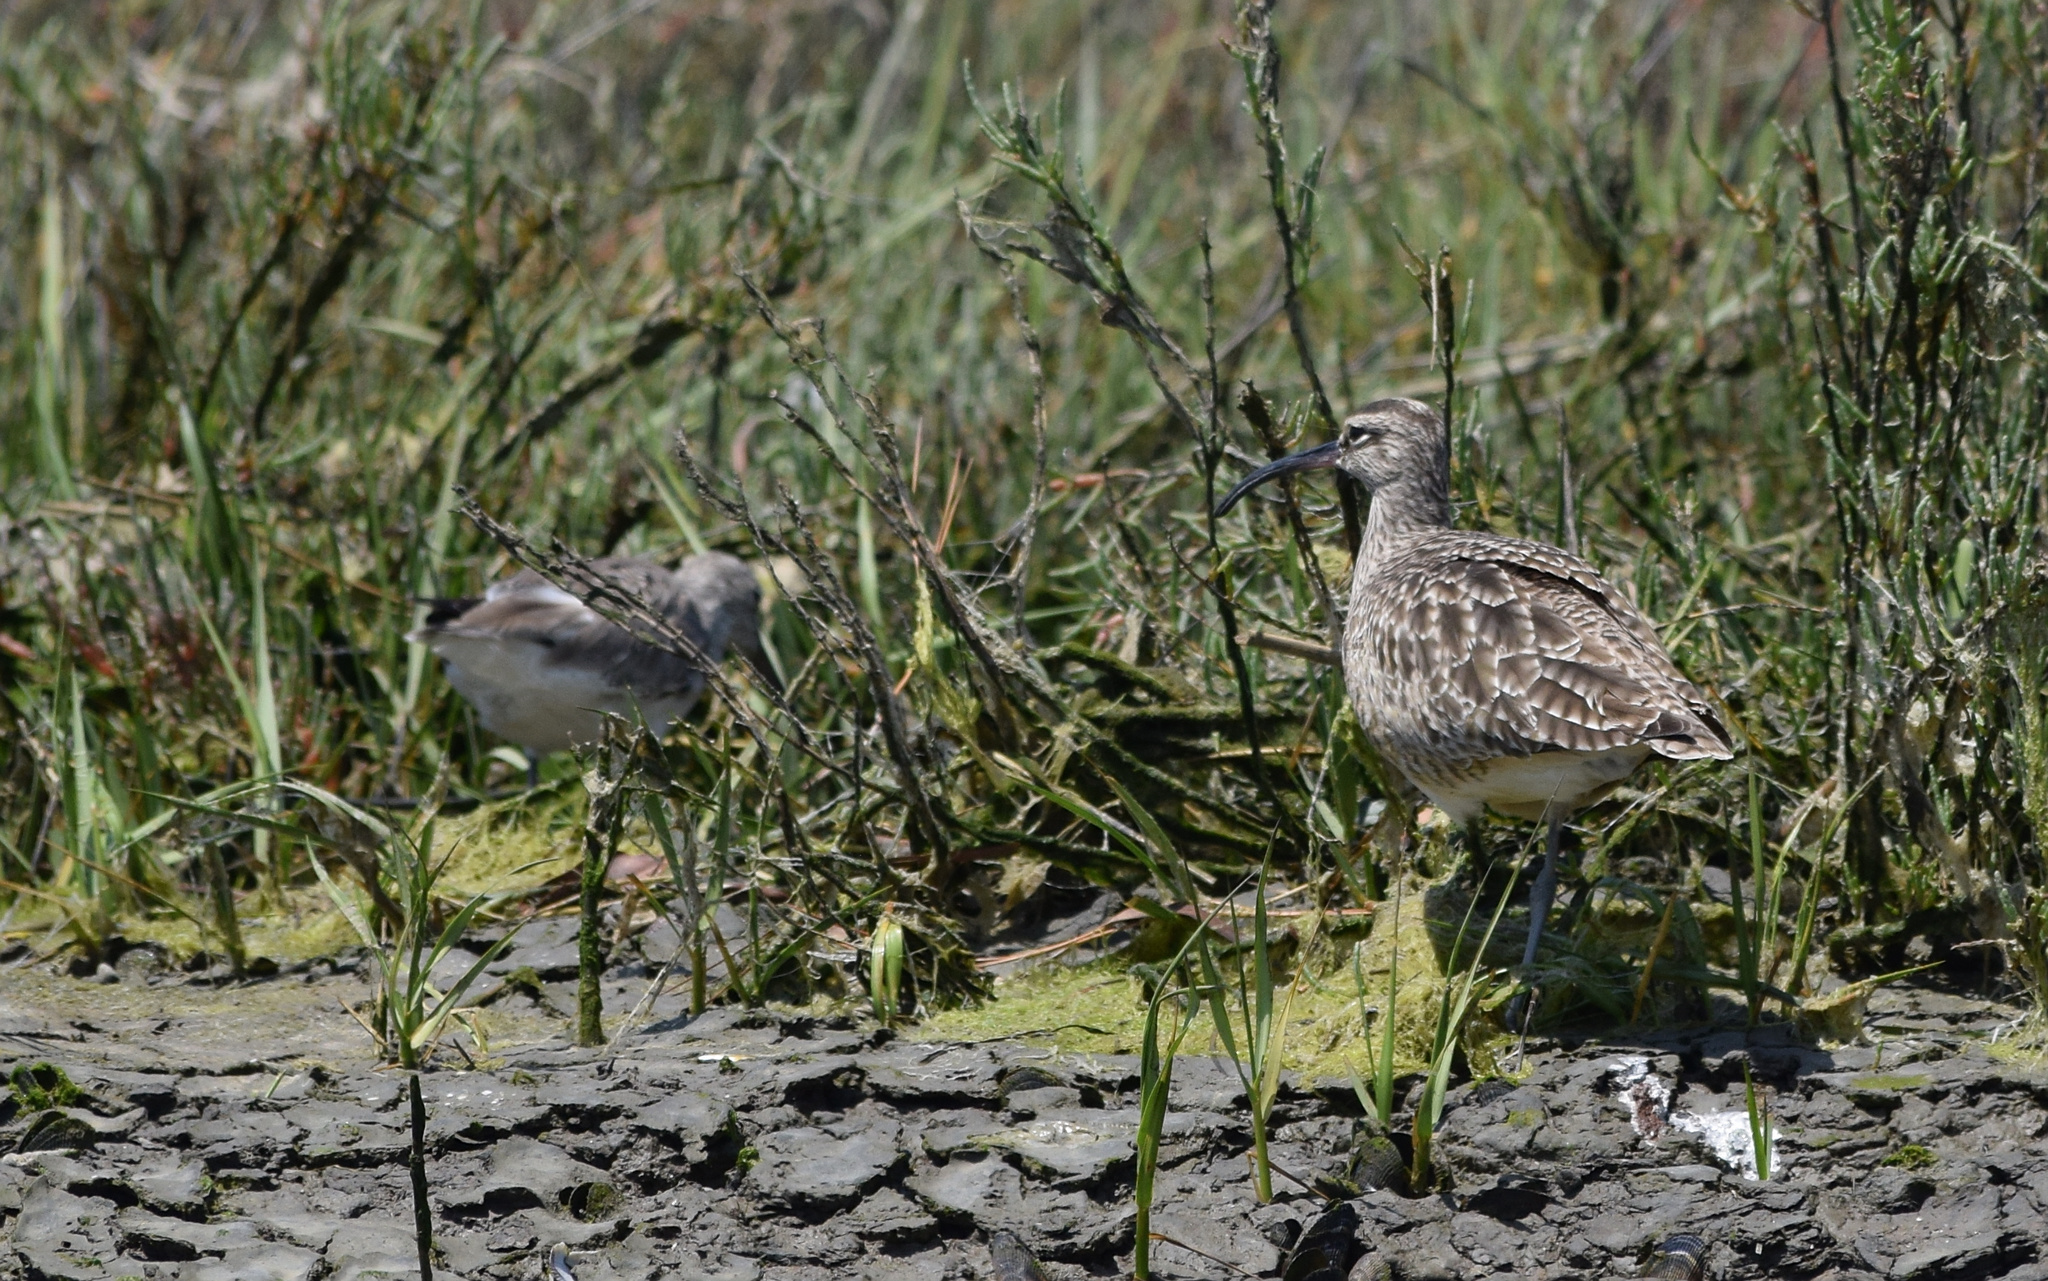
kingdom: Animalia
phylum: Chordata
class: Aves
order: Charadriiformes
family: Scolopacidae
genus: Numenius
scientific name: Numenius phaeopus
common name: Whimbrel
